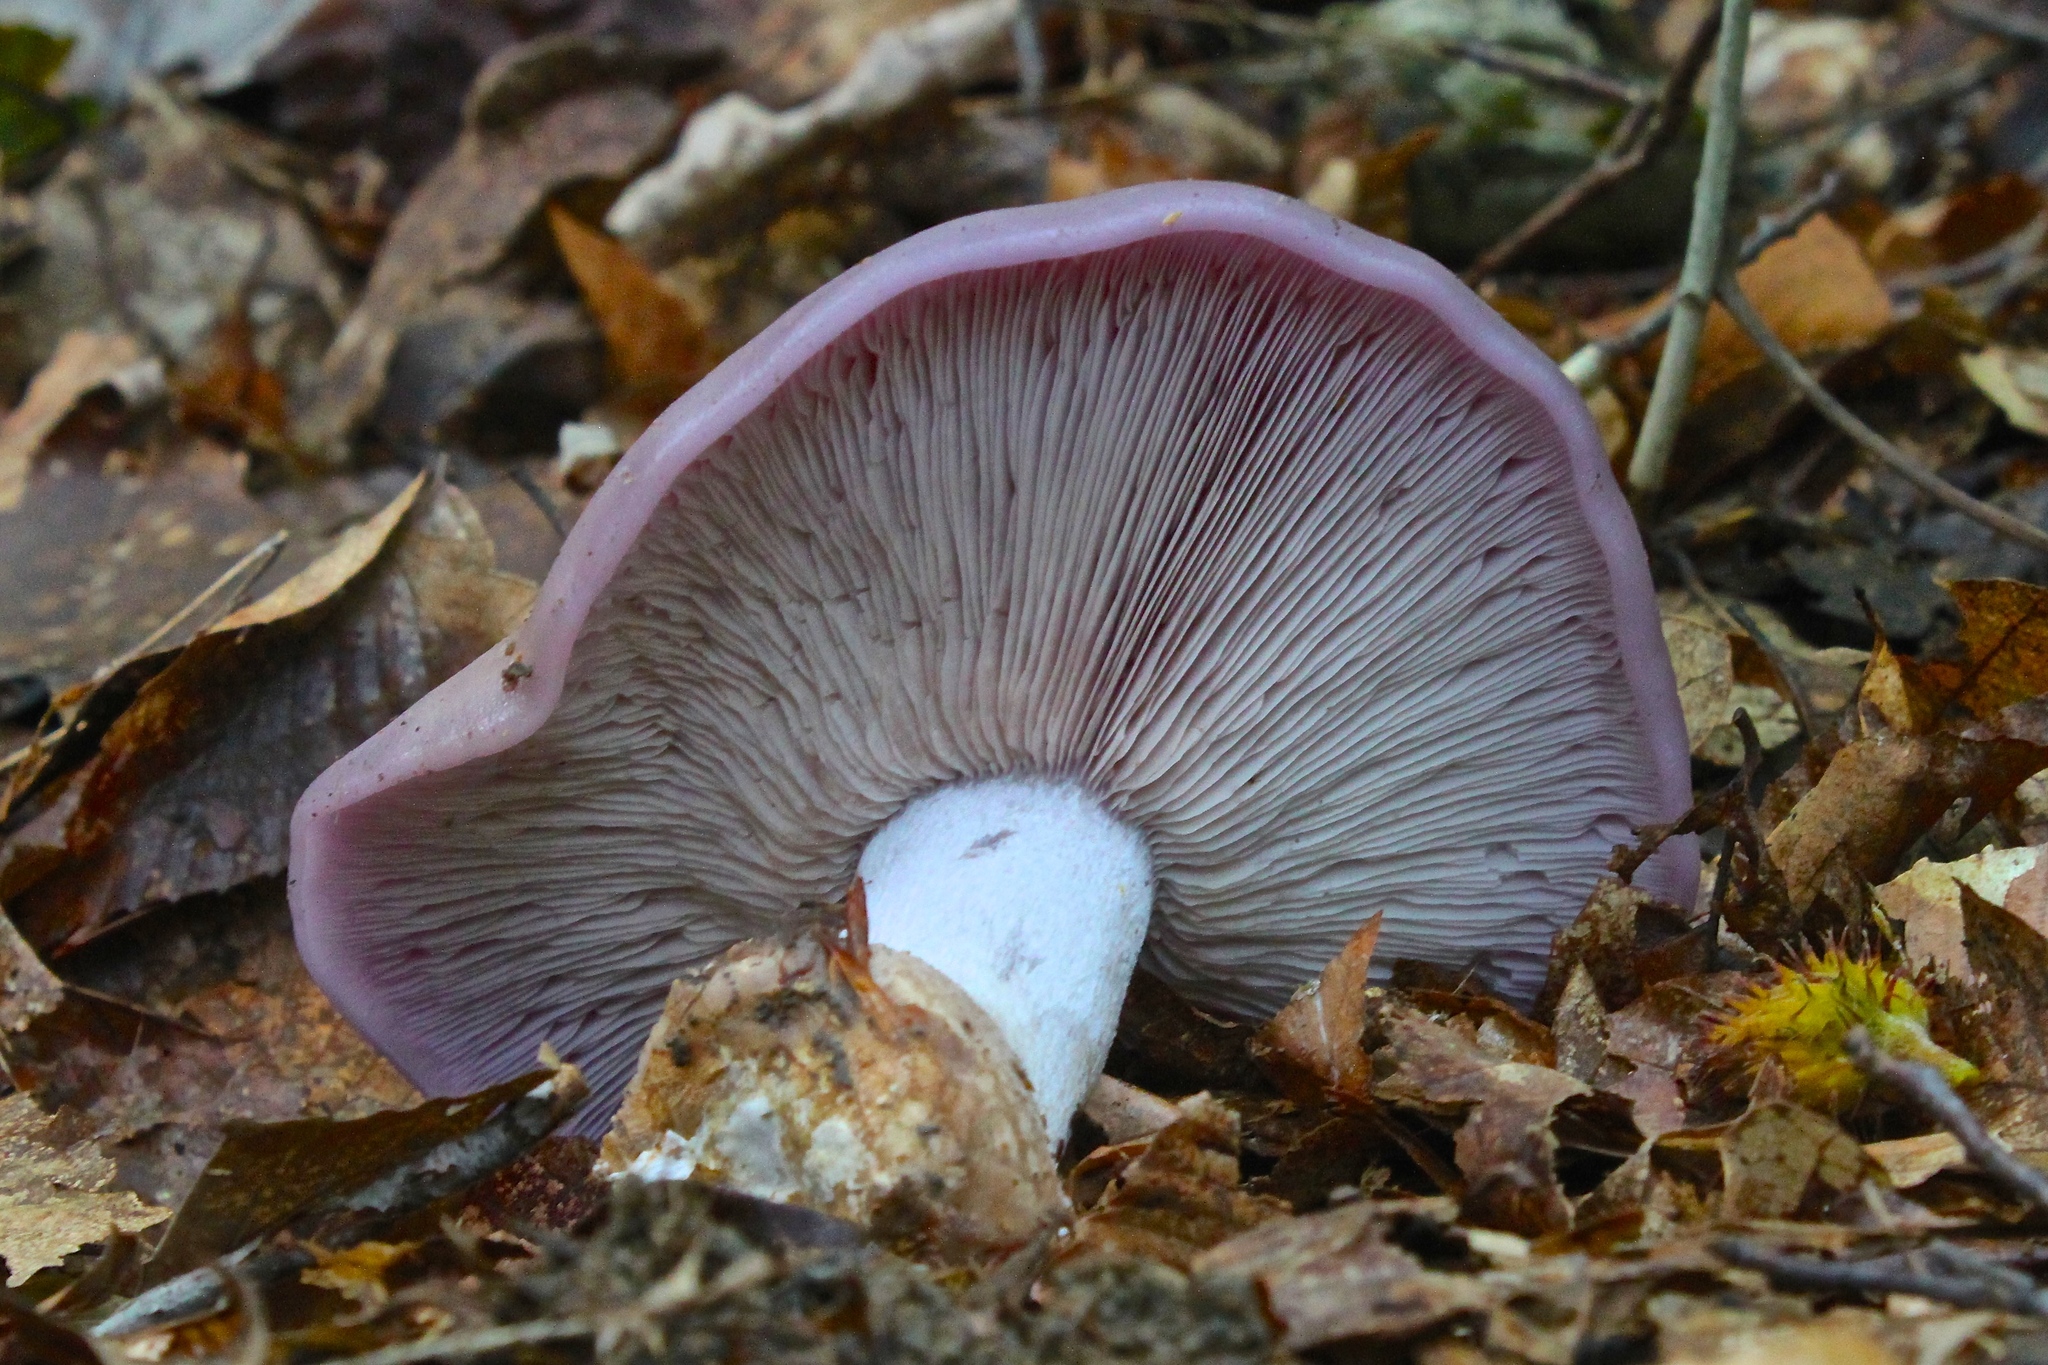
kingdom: Fungi
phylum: Basidiomycota
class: Agaricomycetes
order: Agaricales
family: Tricholomataceae
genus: Collybia
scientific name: Collybia
